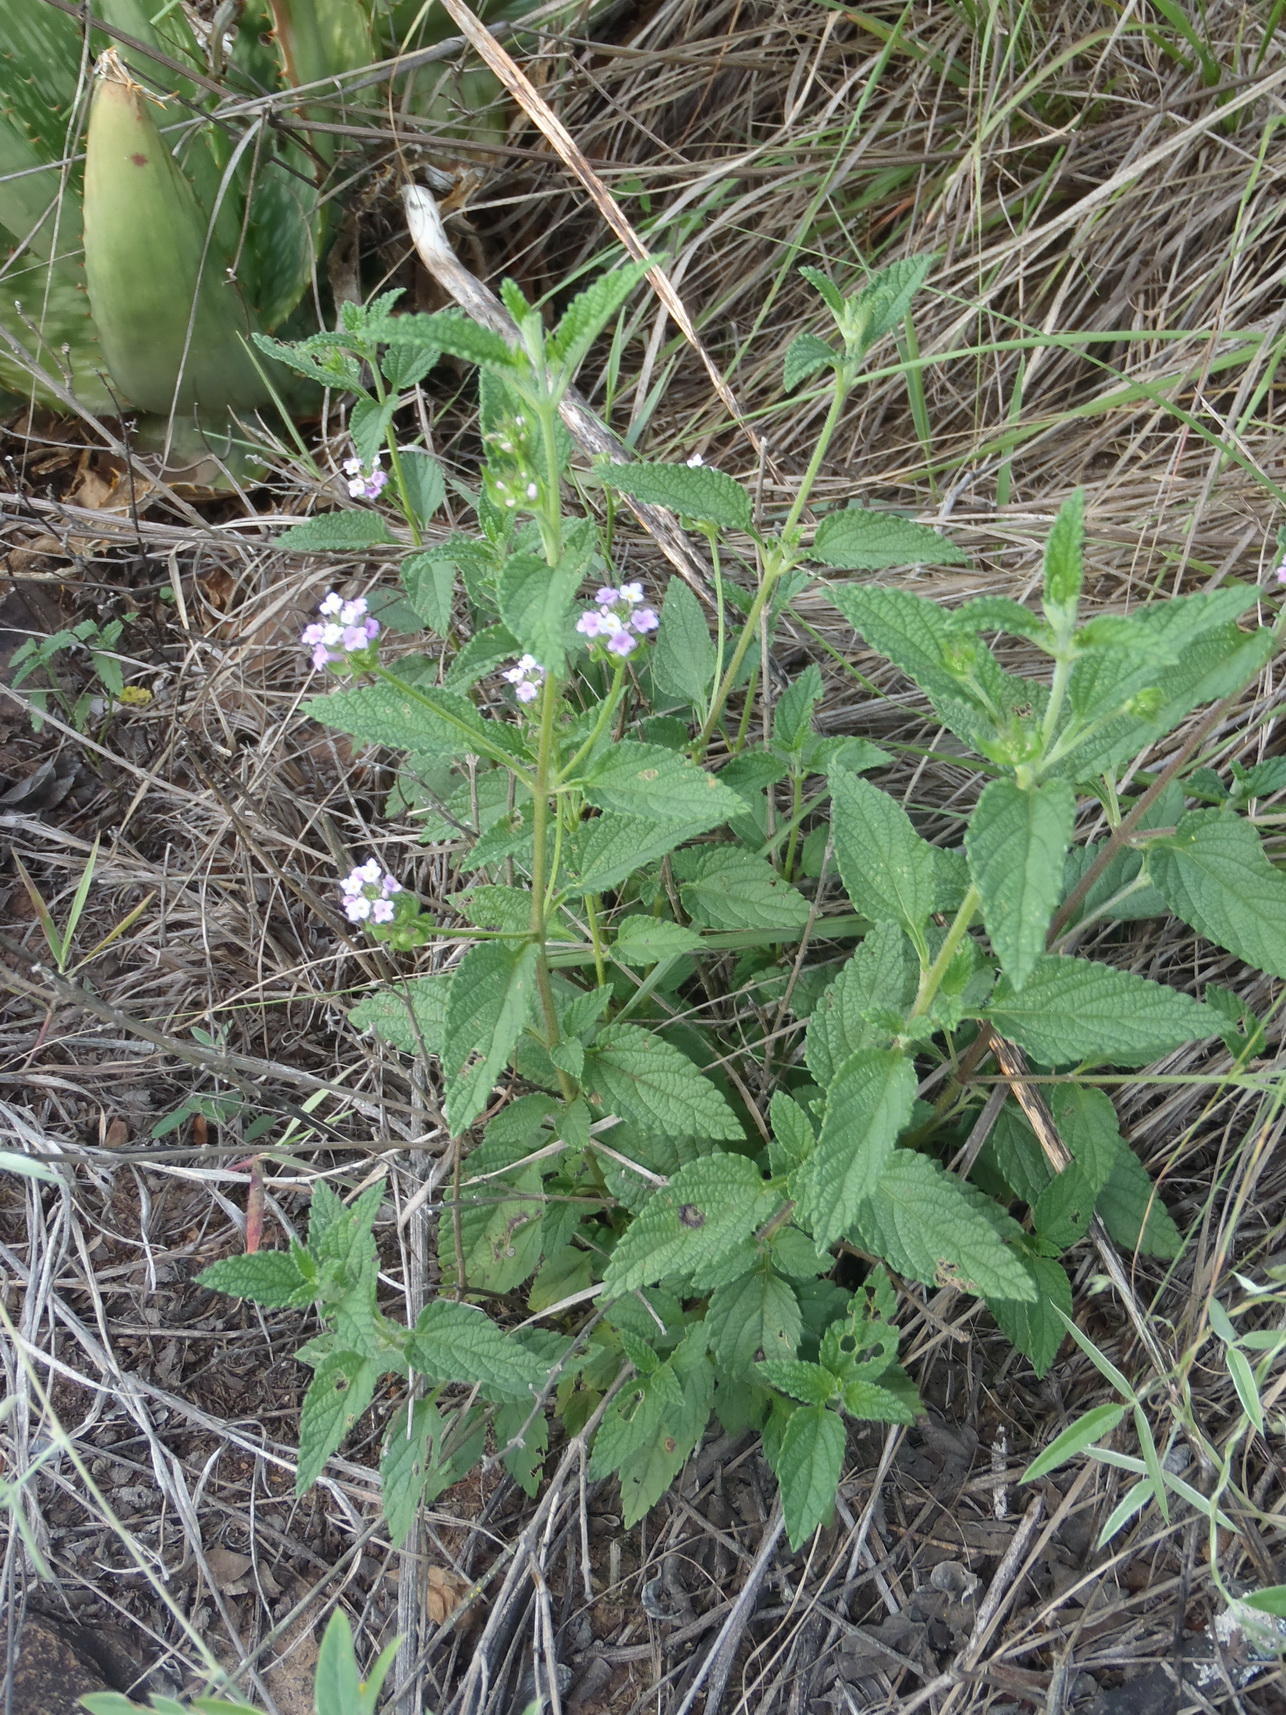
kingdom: Plantae
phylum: Tracheophyta
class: Magnoliopsida
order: Lamiales
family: Verbenaceae
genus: Lantana
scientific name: Lantana rugosa
